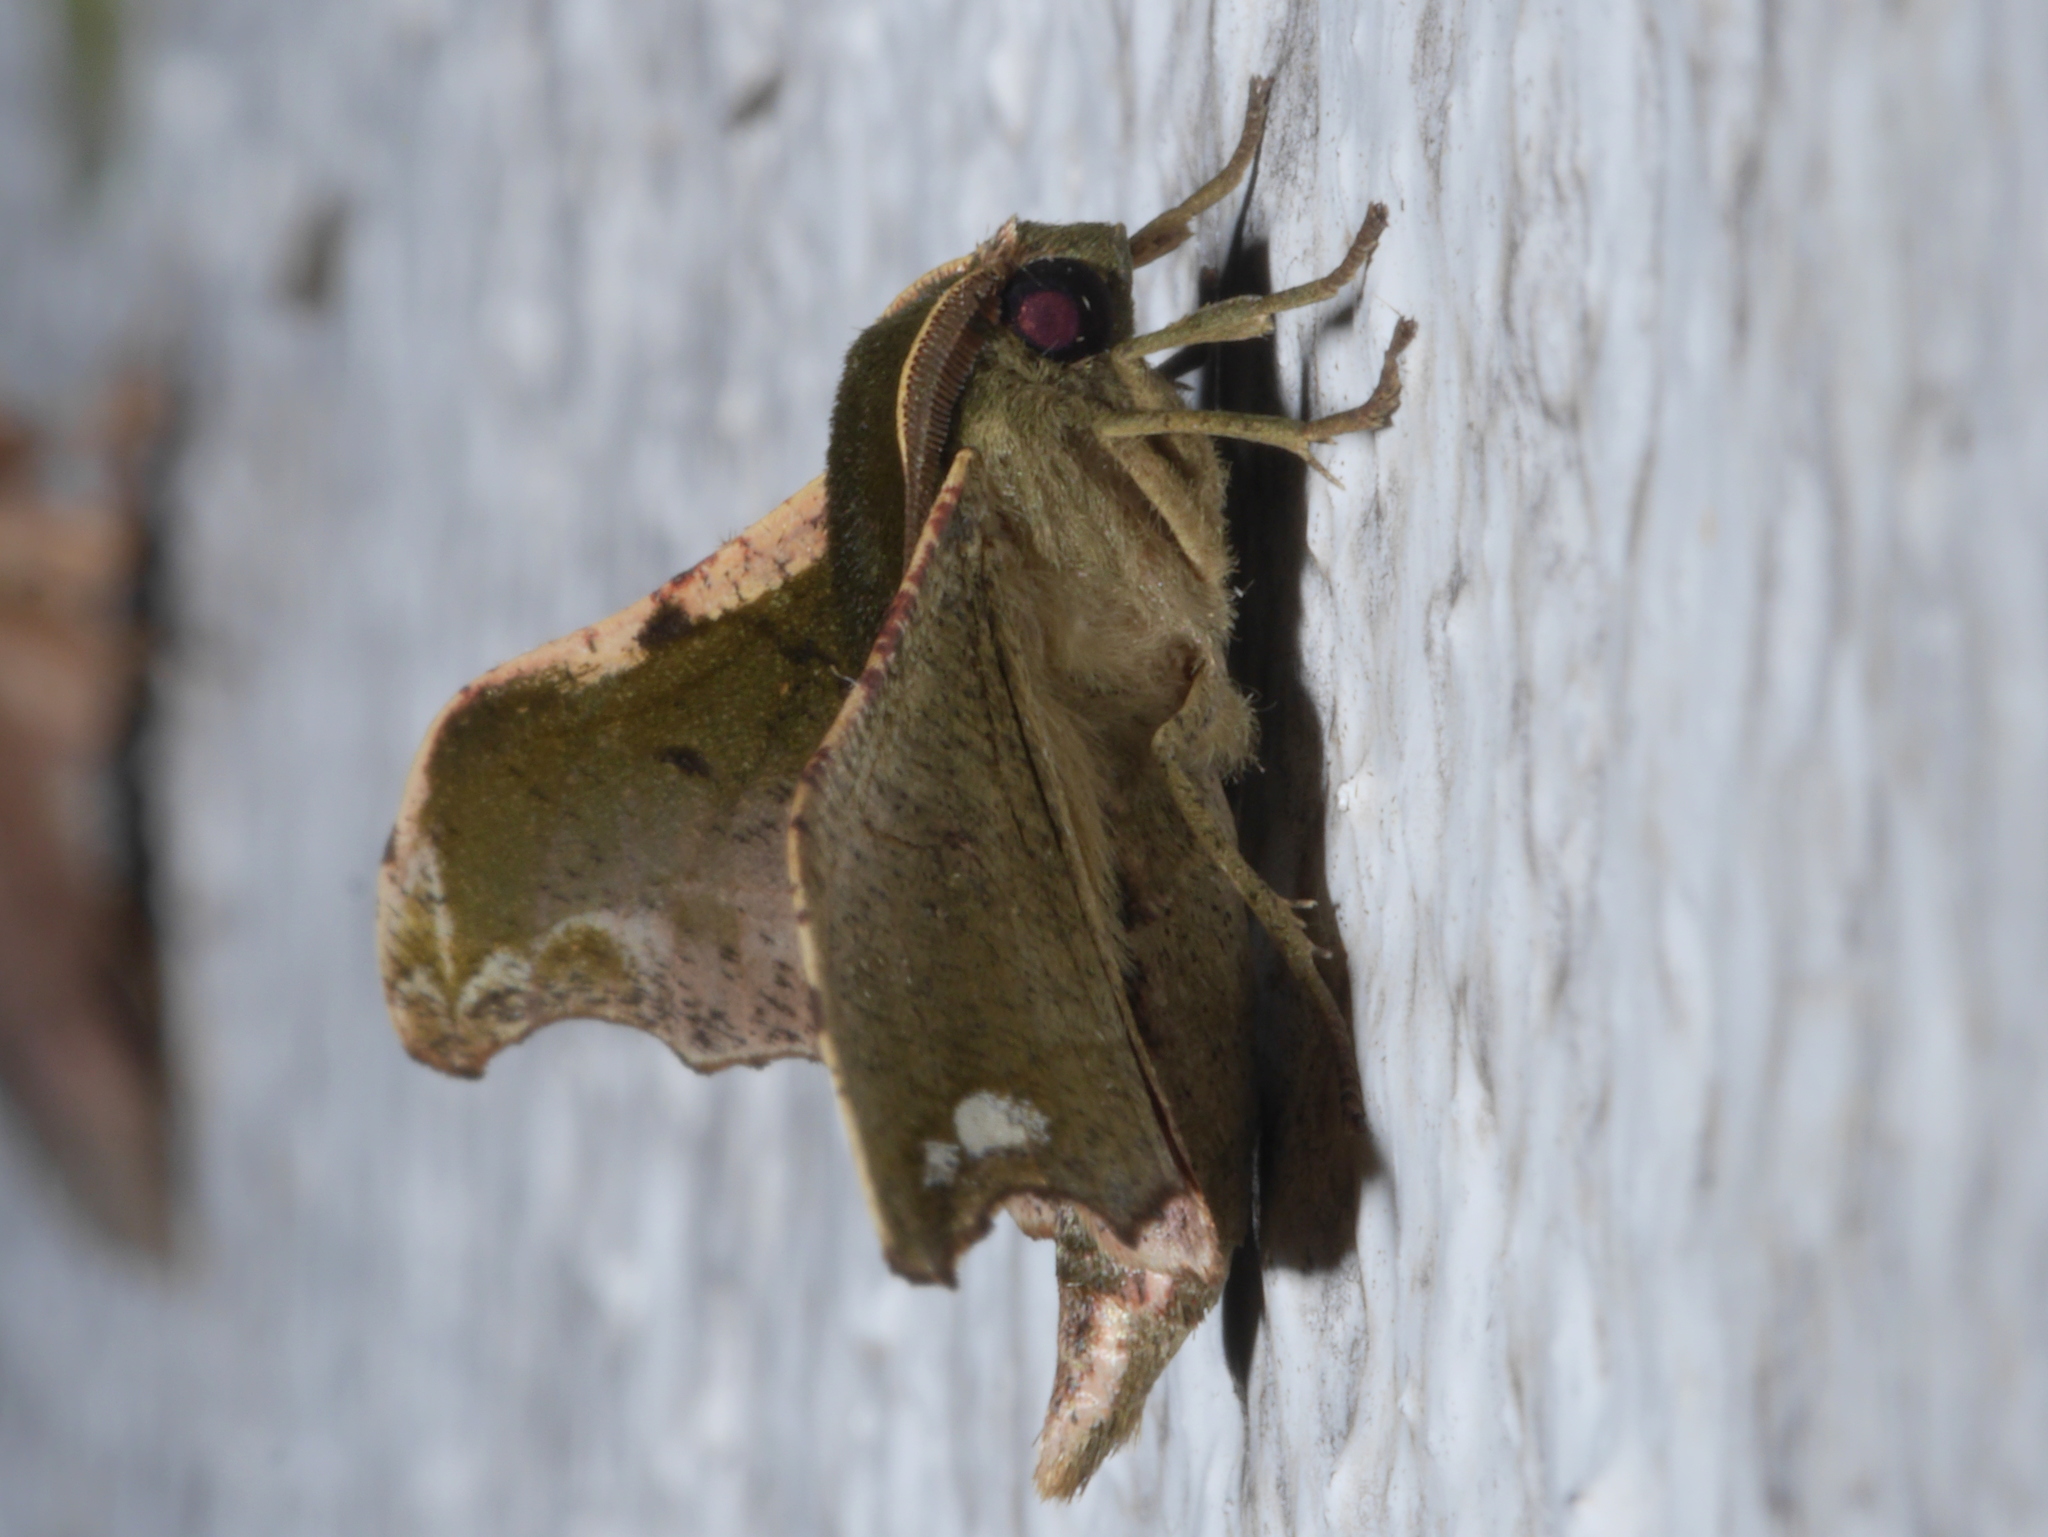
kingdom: Animalia
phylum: Arthropoda
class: Insecta
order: Lepidoptera
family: Geometridae
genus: Sphingomima
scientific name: Sphingomima cinereomarginata
